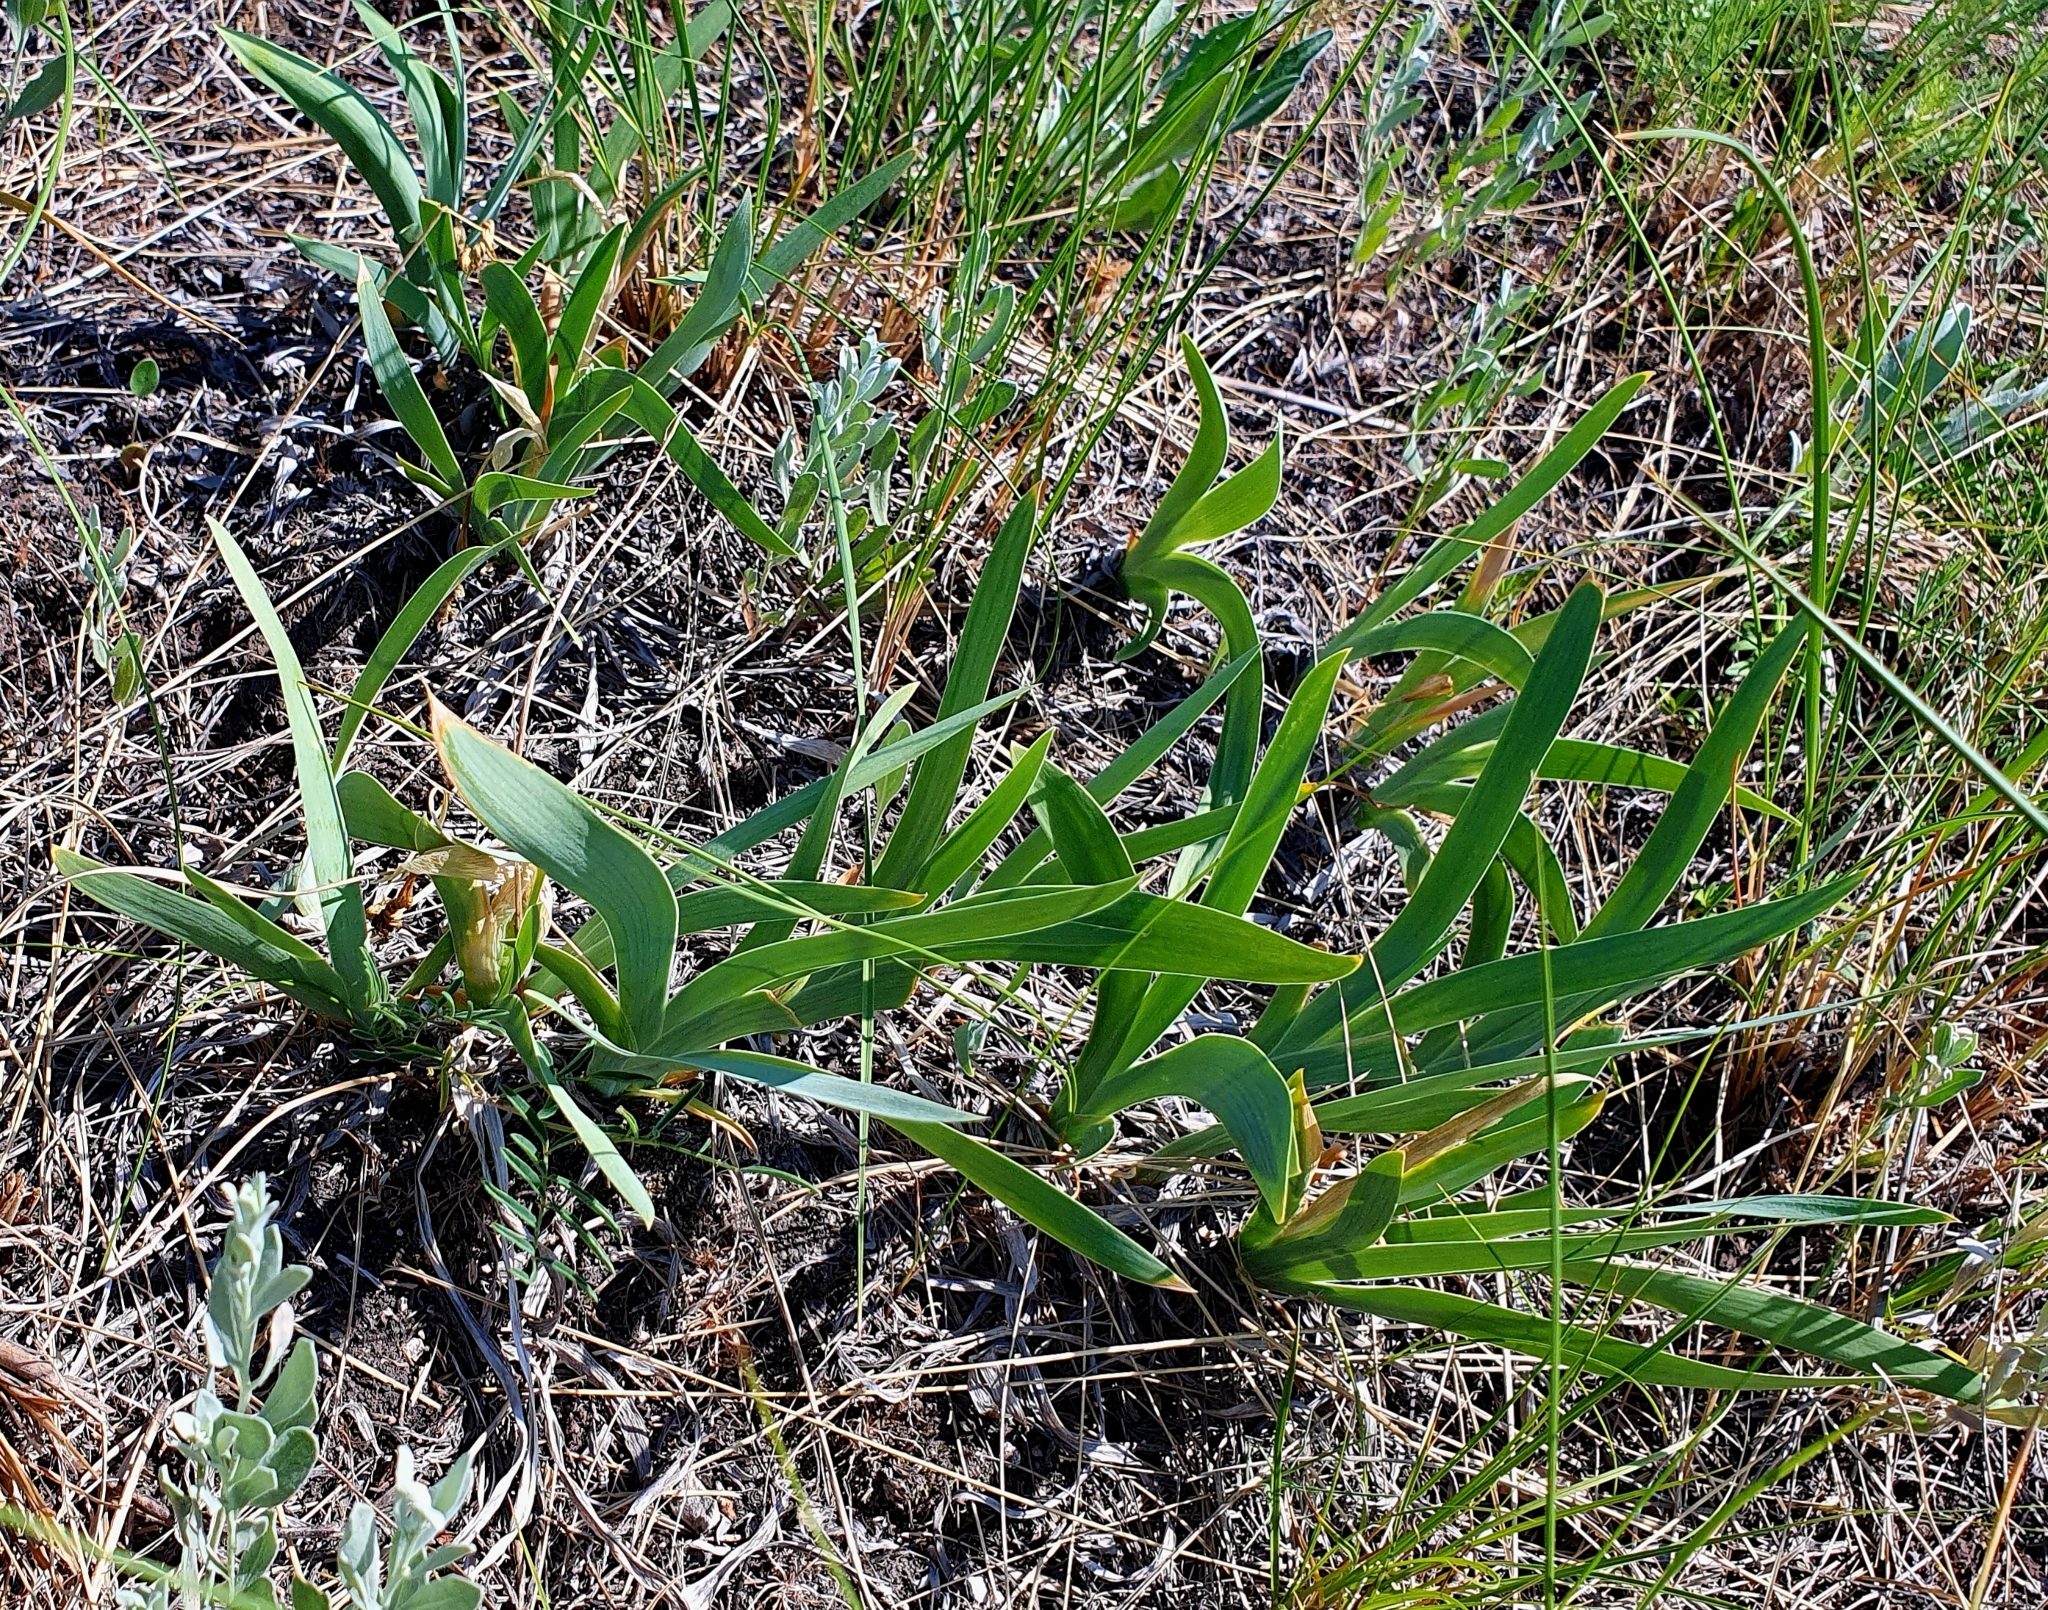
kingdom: Plantae
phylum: Tracheophyta
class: Liliopsida
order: Asparagales
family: Iridaceae
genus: Iris
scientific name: Iris pumila
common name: Dwarf iris
